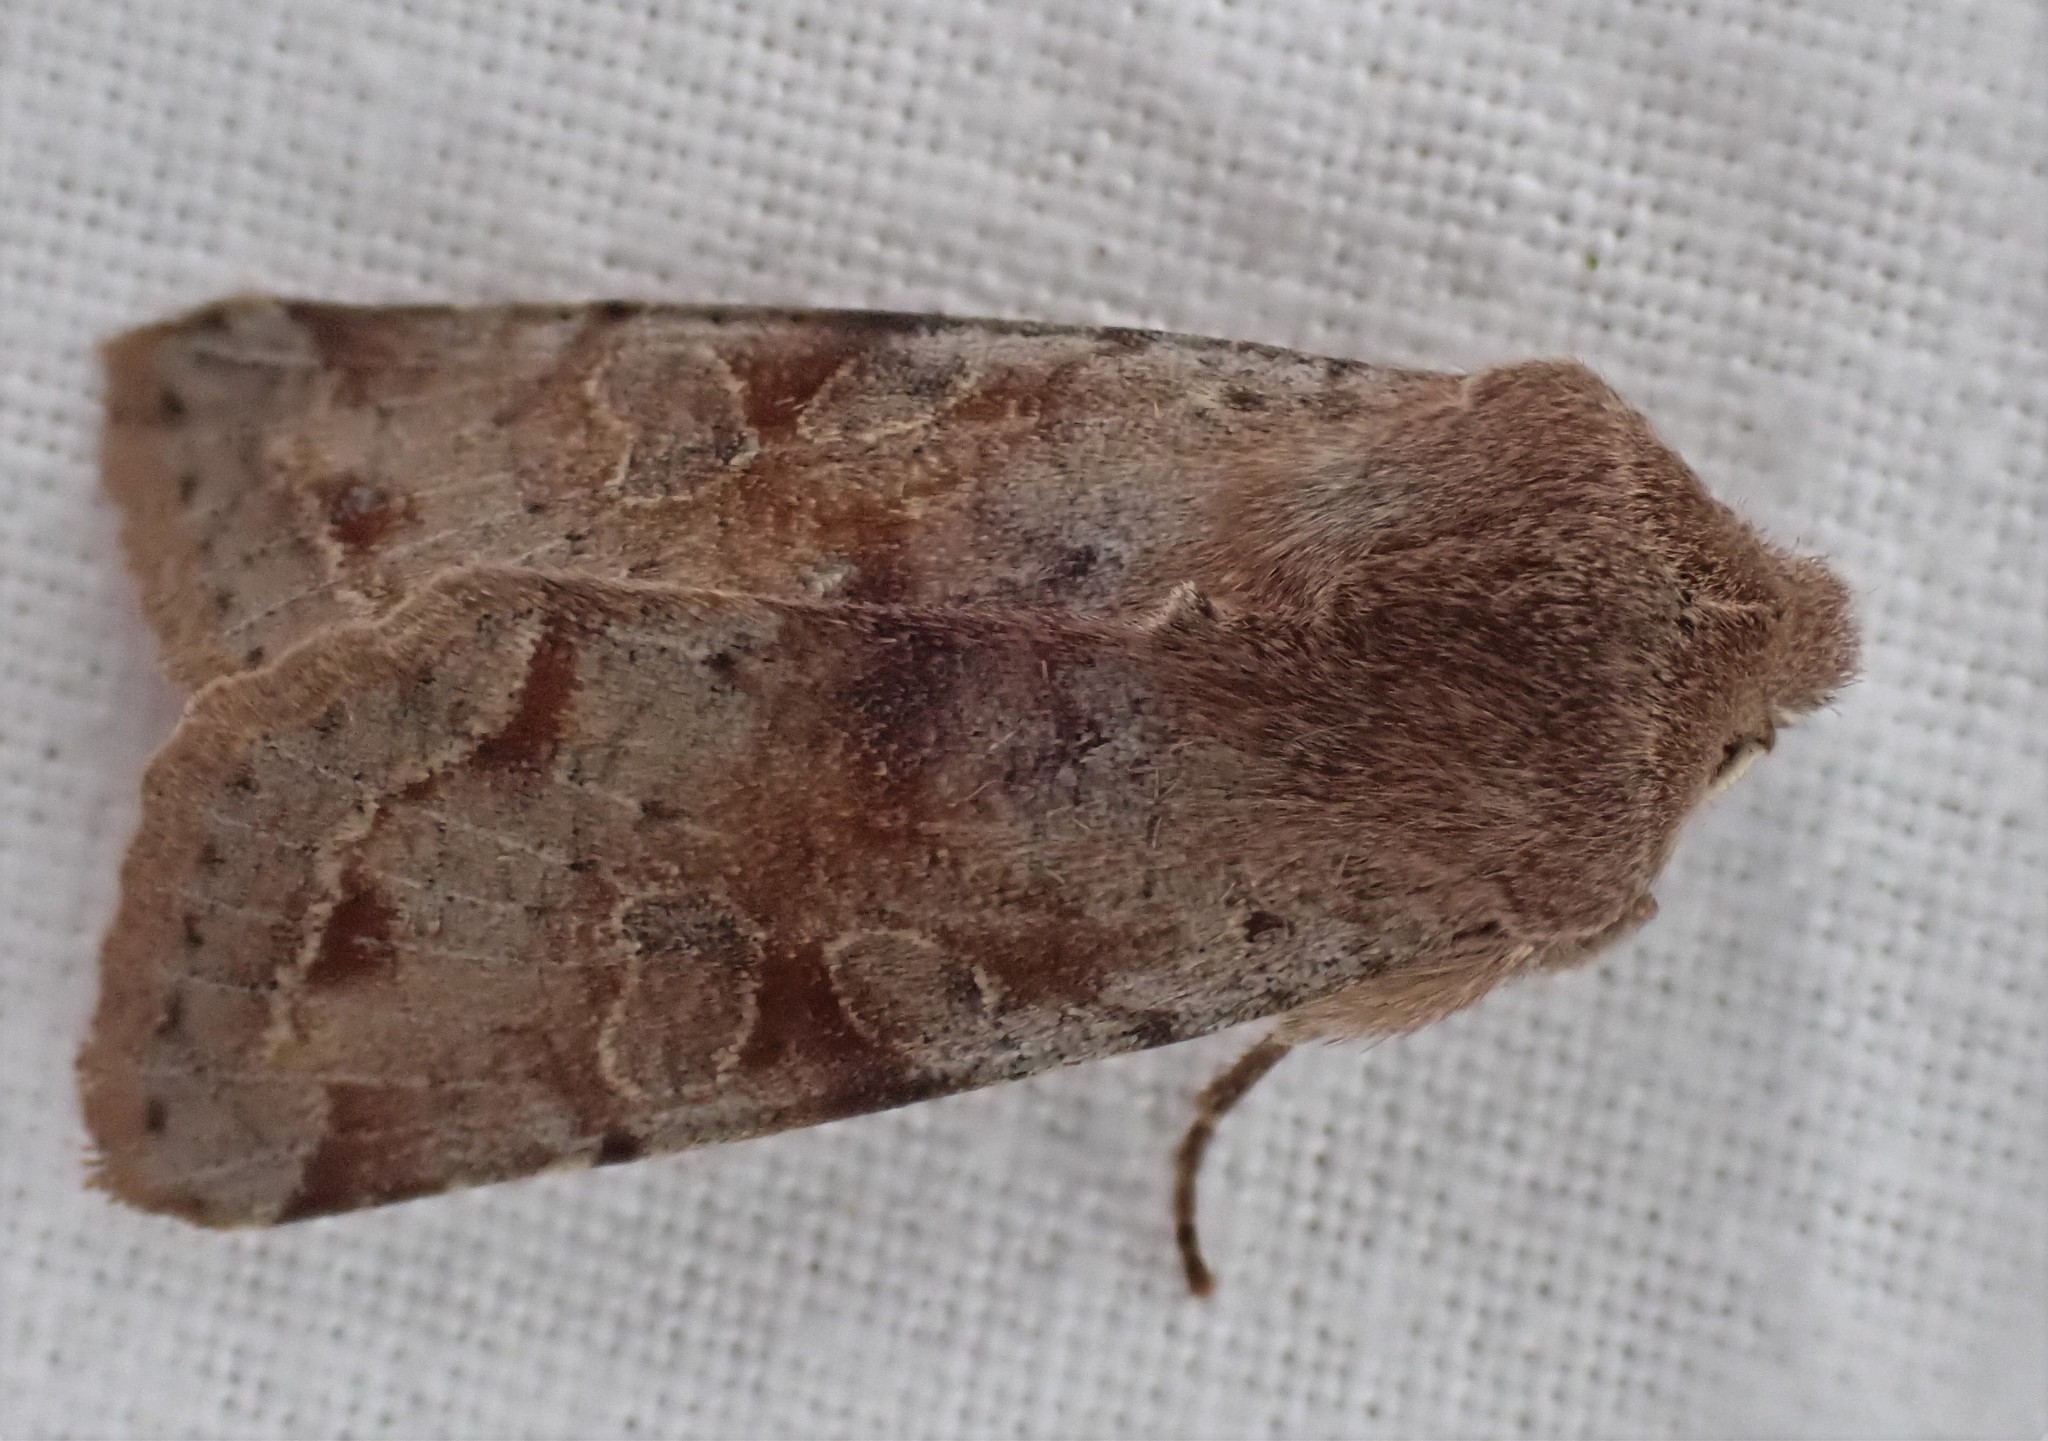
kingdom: Animalia
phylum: Arthropoda
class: Insecta
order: Lepidoptera
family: Noctuidae
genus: Orthosia
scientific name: Orthosia incerta
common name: Clouded drab
